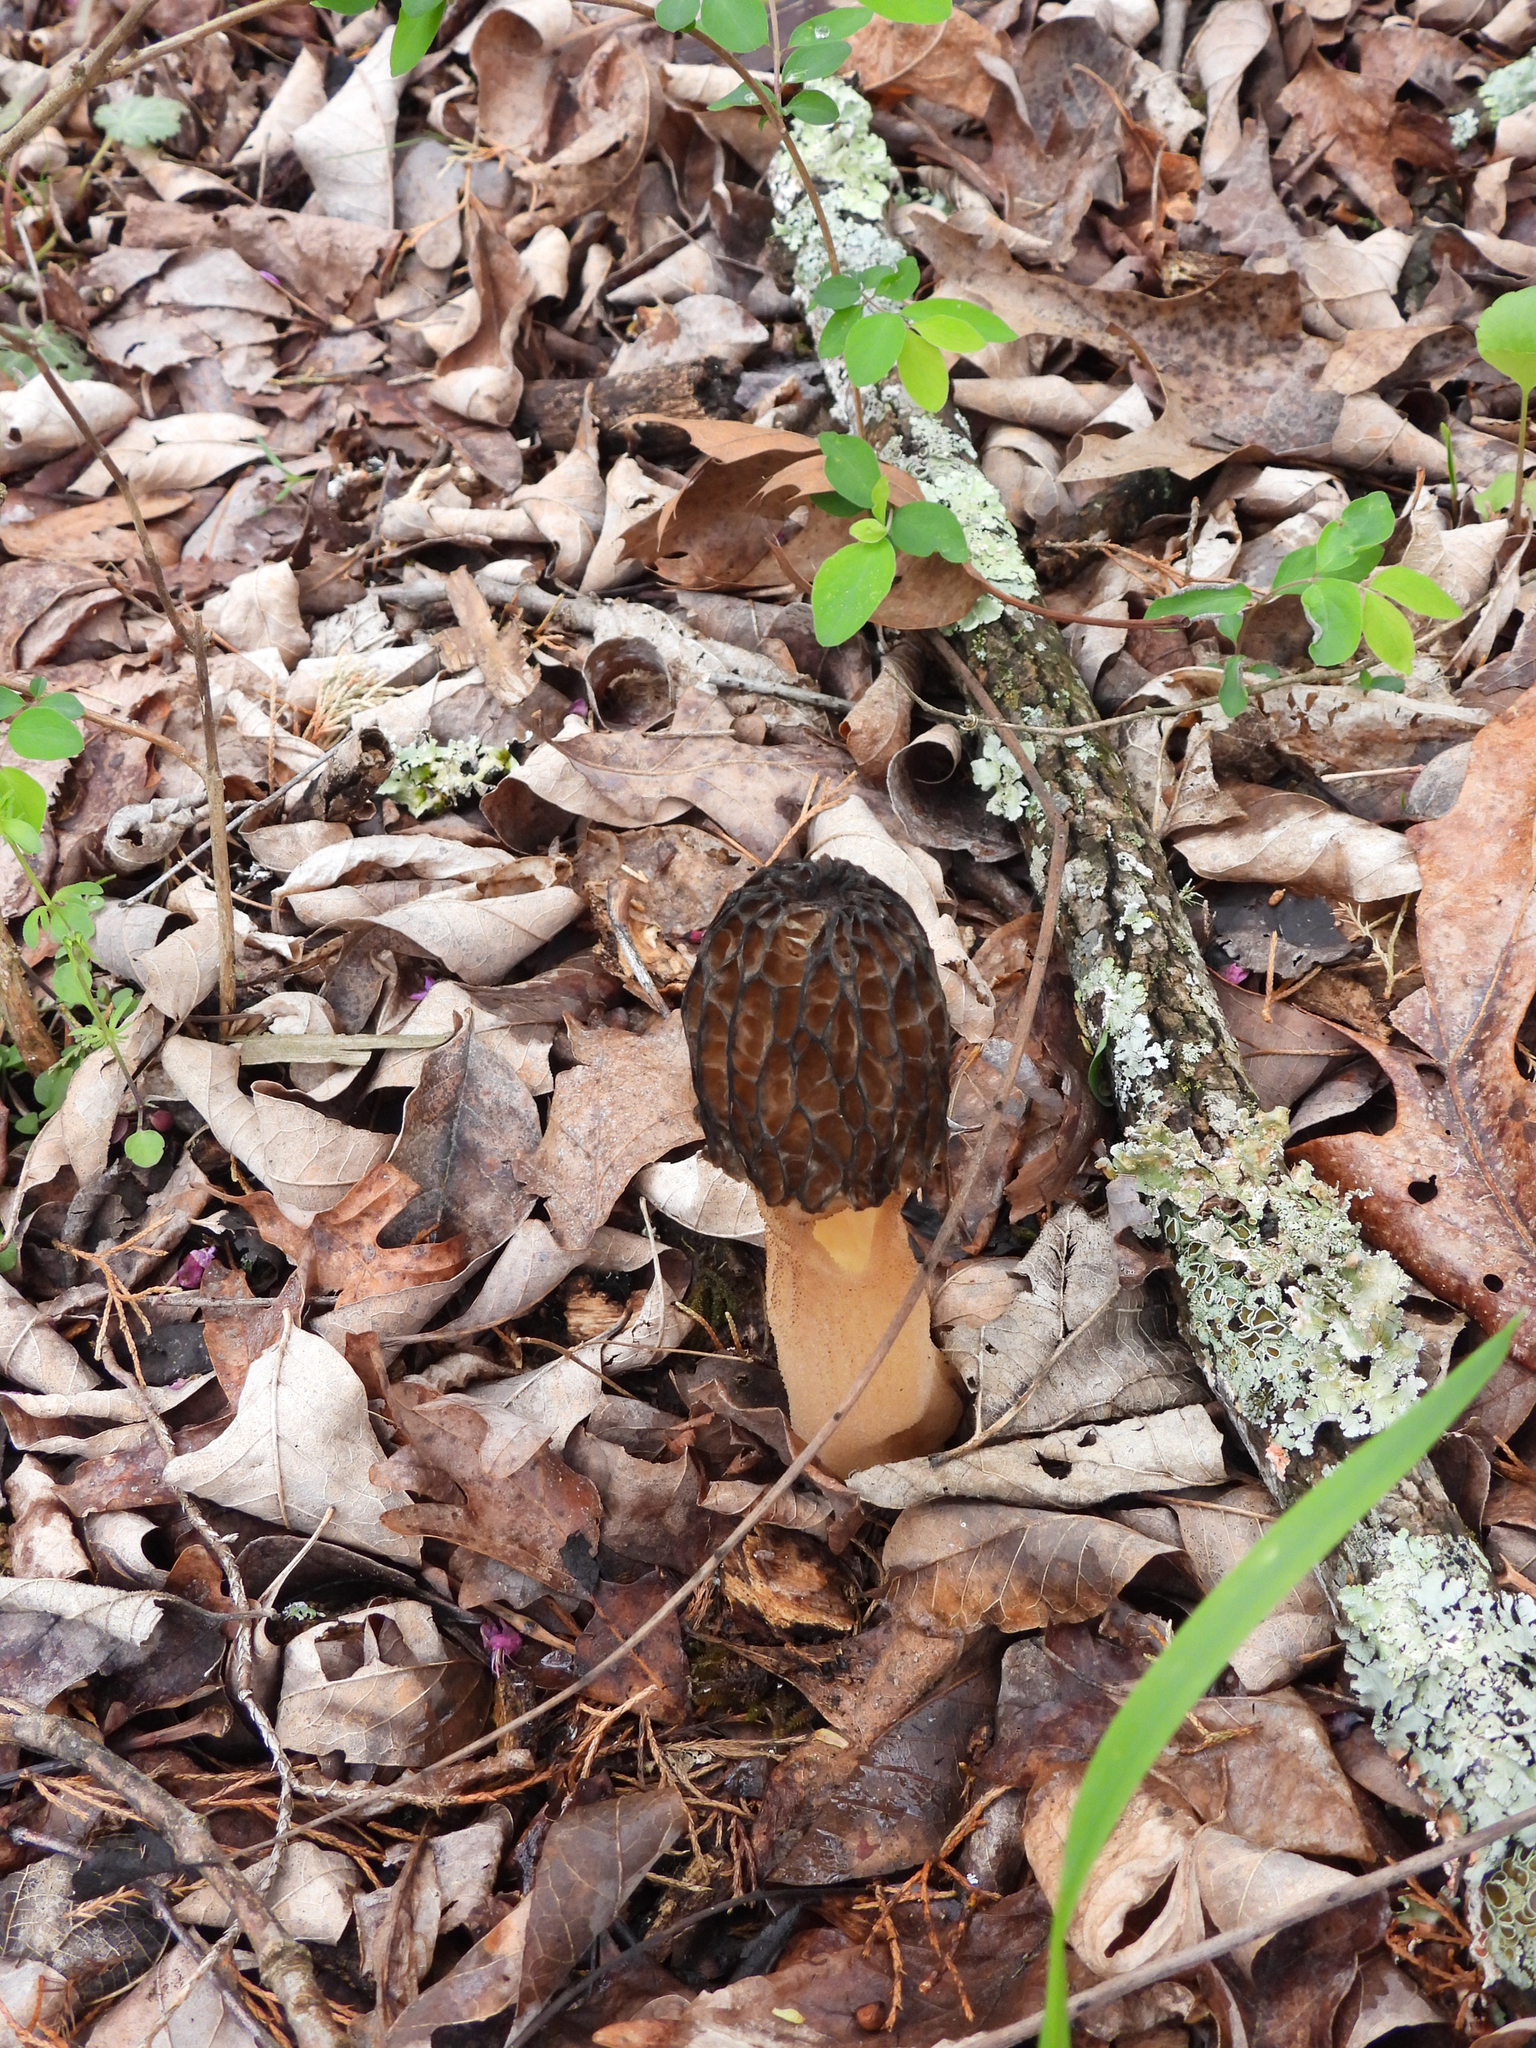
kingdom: Fungi
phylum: Ascomycota
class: Pezizomycetes
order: Pezizales
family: Morchellaceae
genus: Morchella
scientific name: Morchella angusticeps
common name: Black morel
